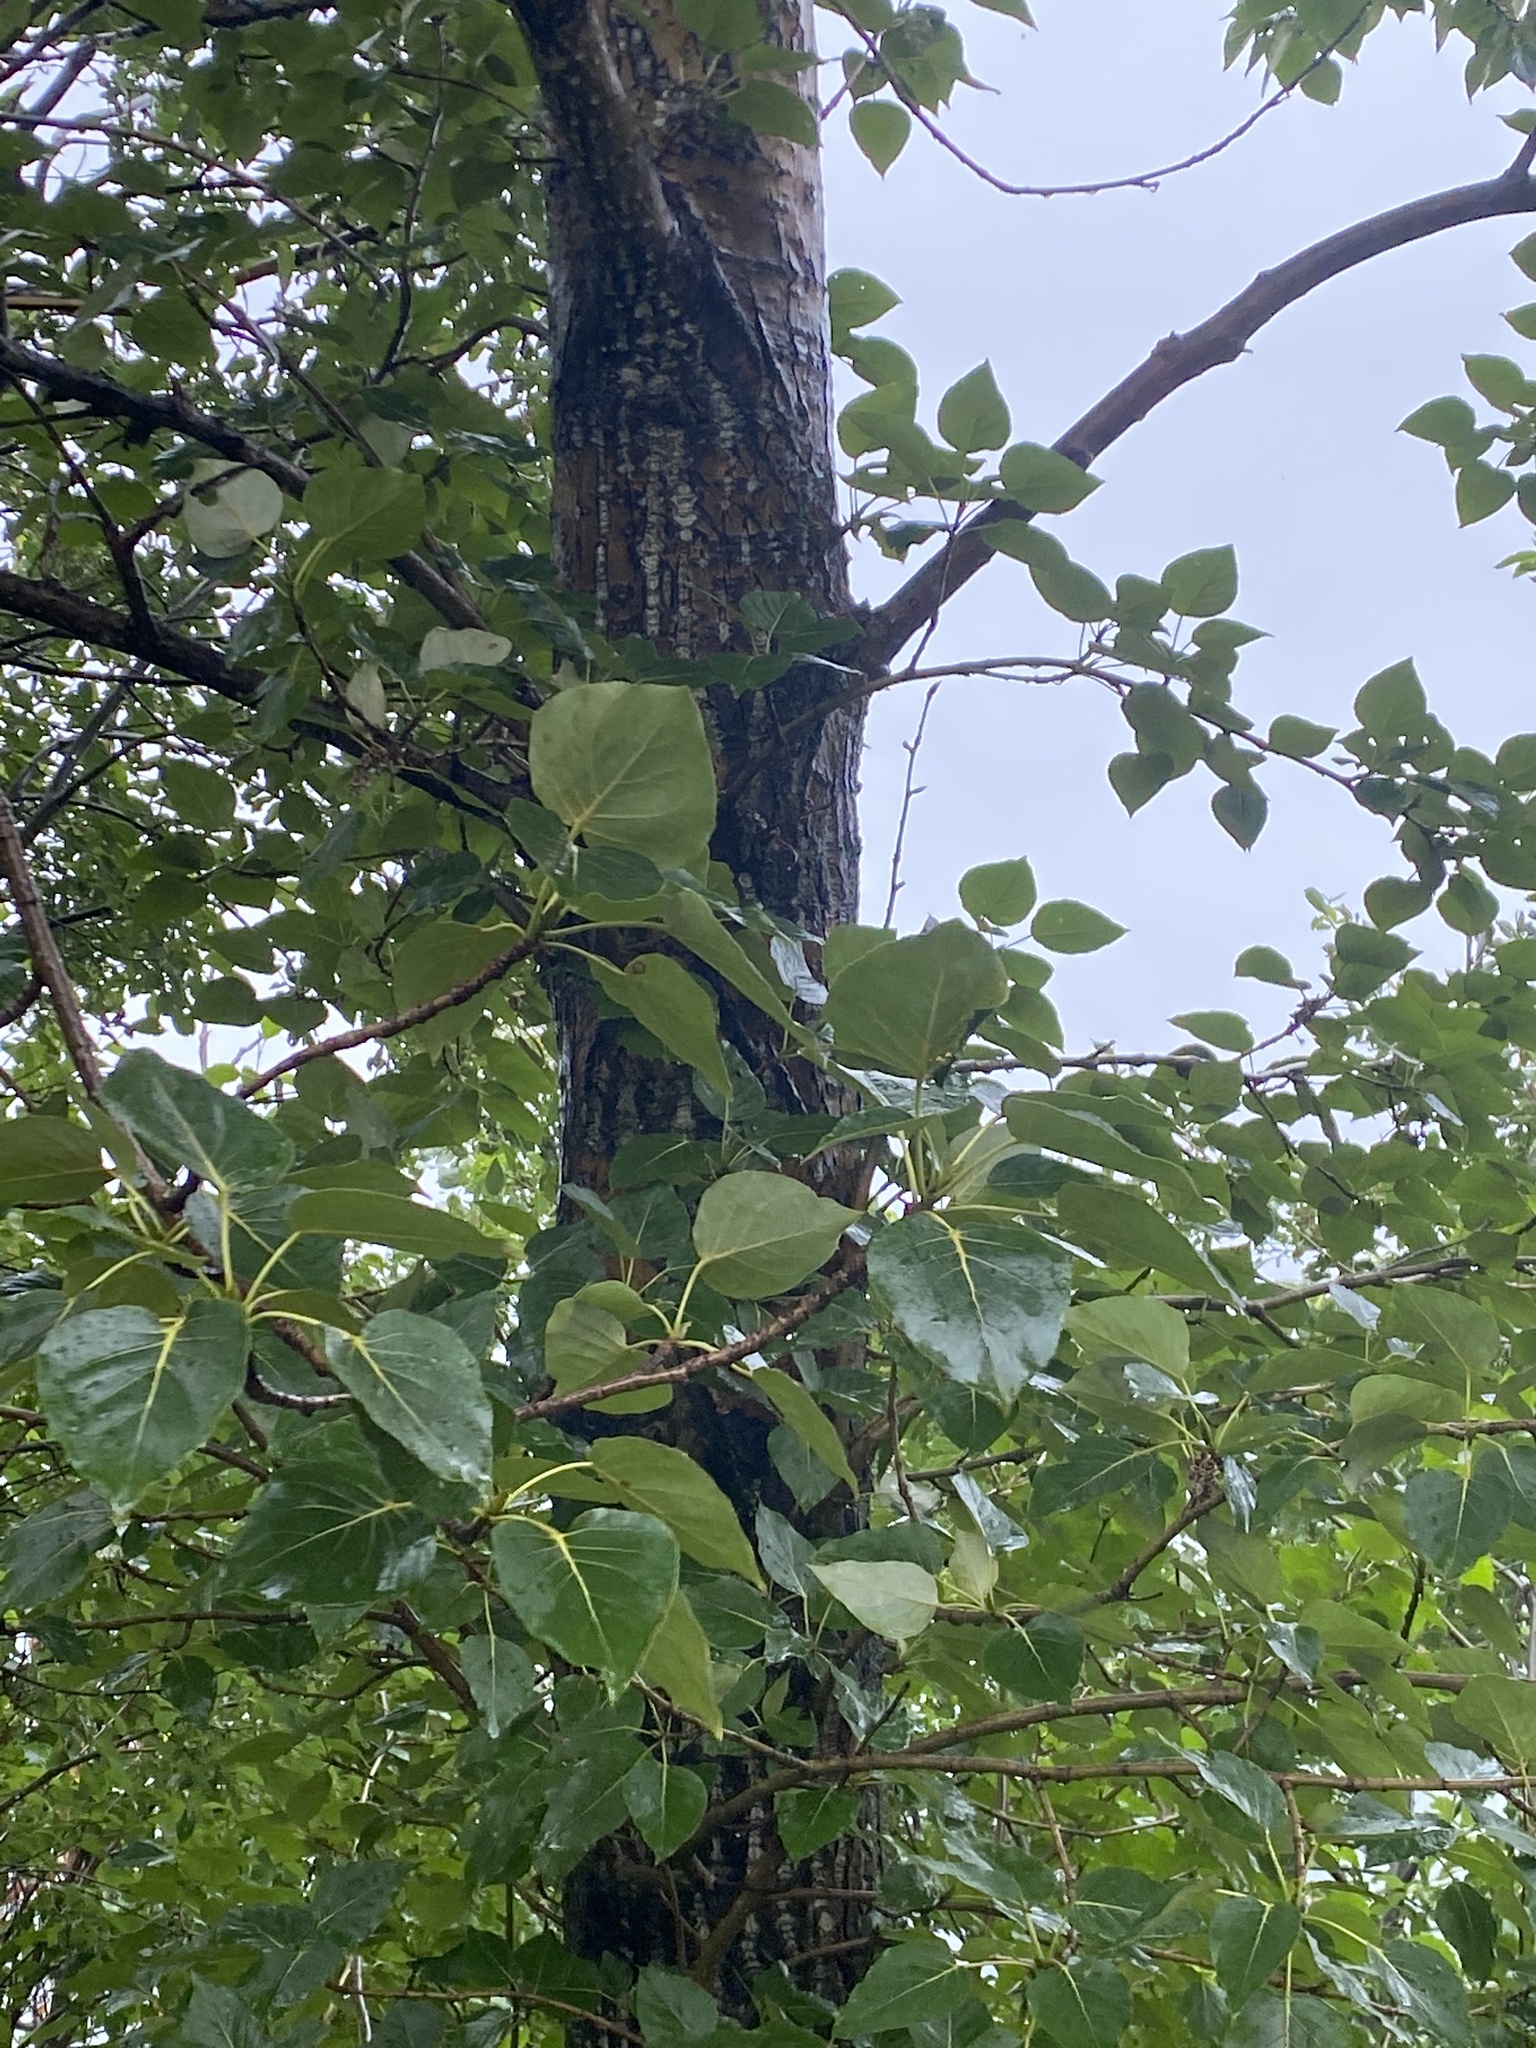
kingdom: Plantae
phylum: Tracheophyta
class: Magnoliopsida
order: Malpighiales
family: Salicaceae
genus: Populus
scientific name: Populus trichocarpa
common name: Black cottonwood
